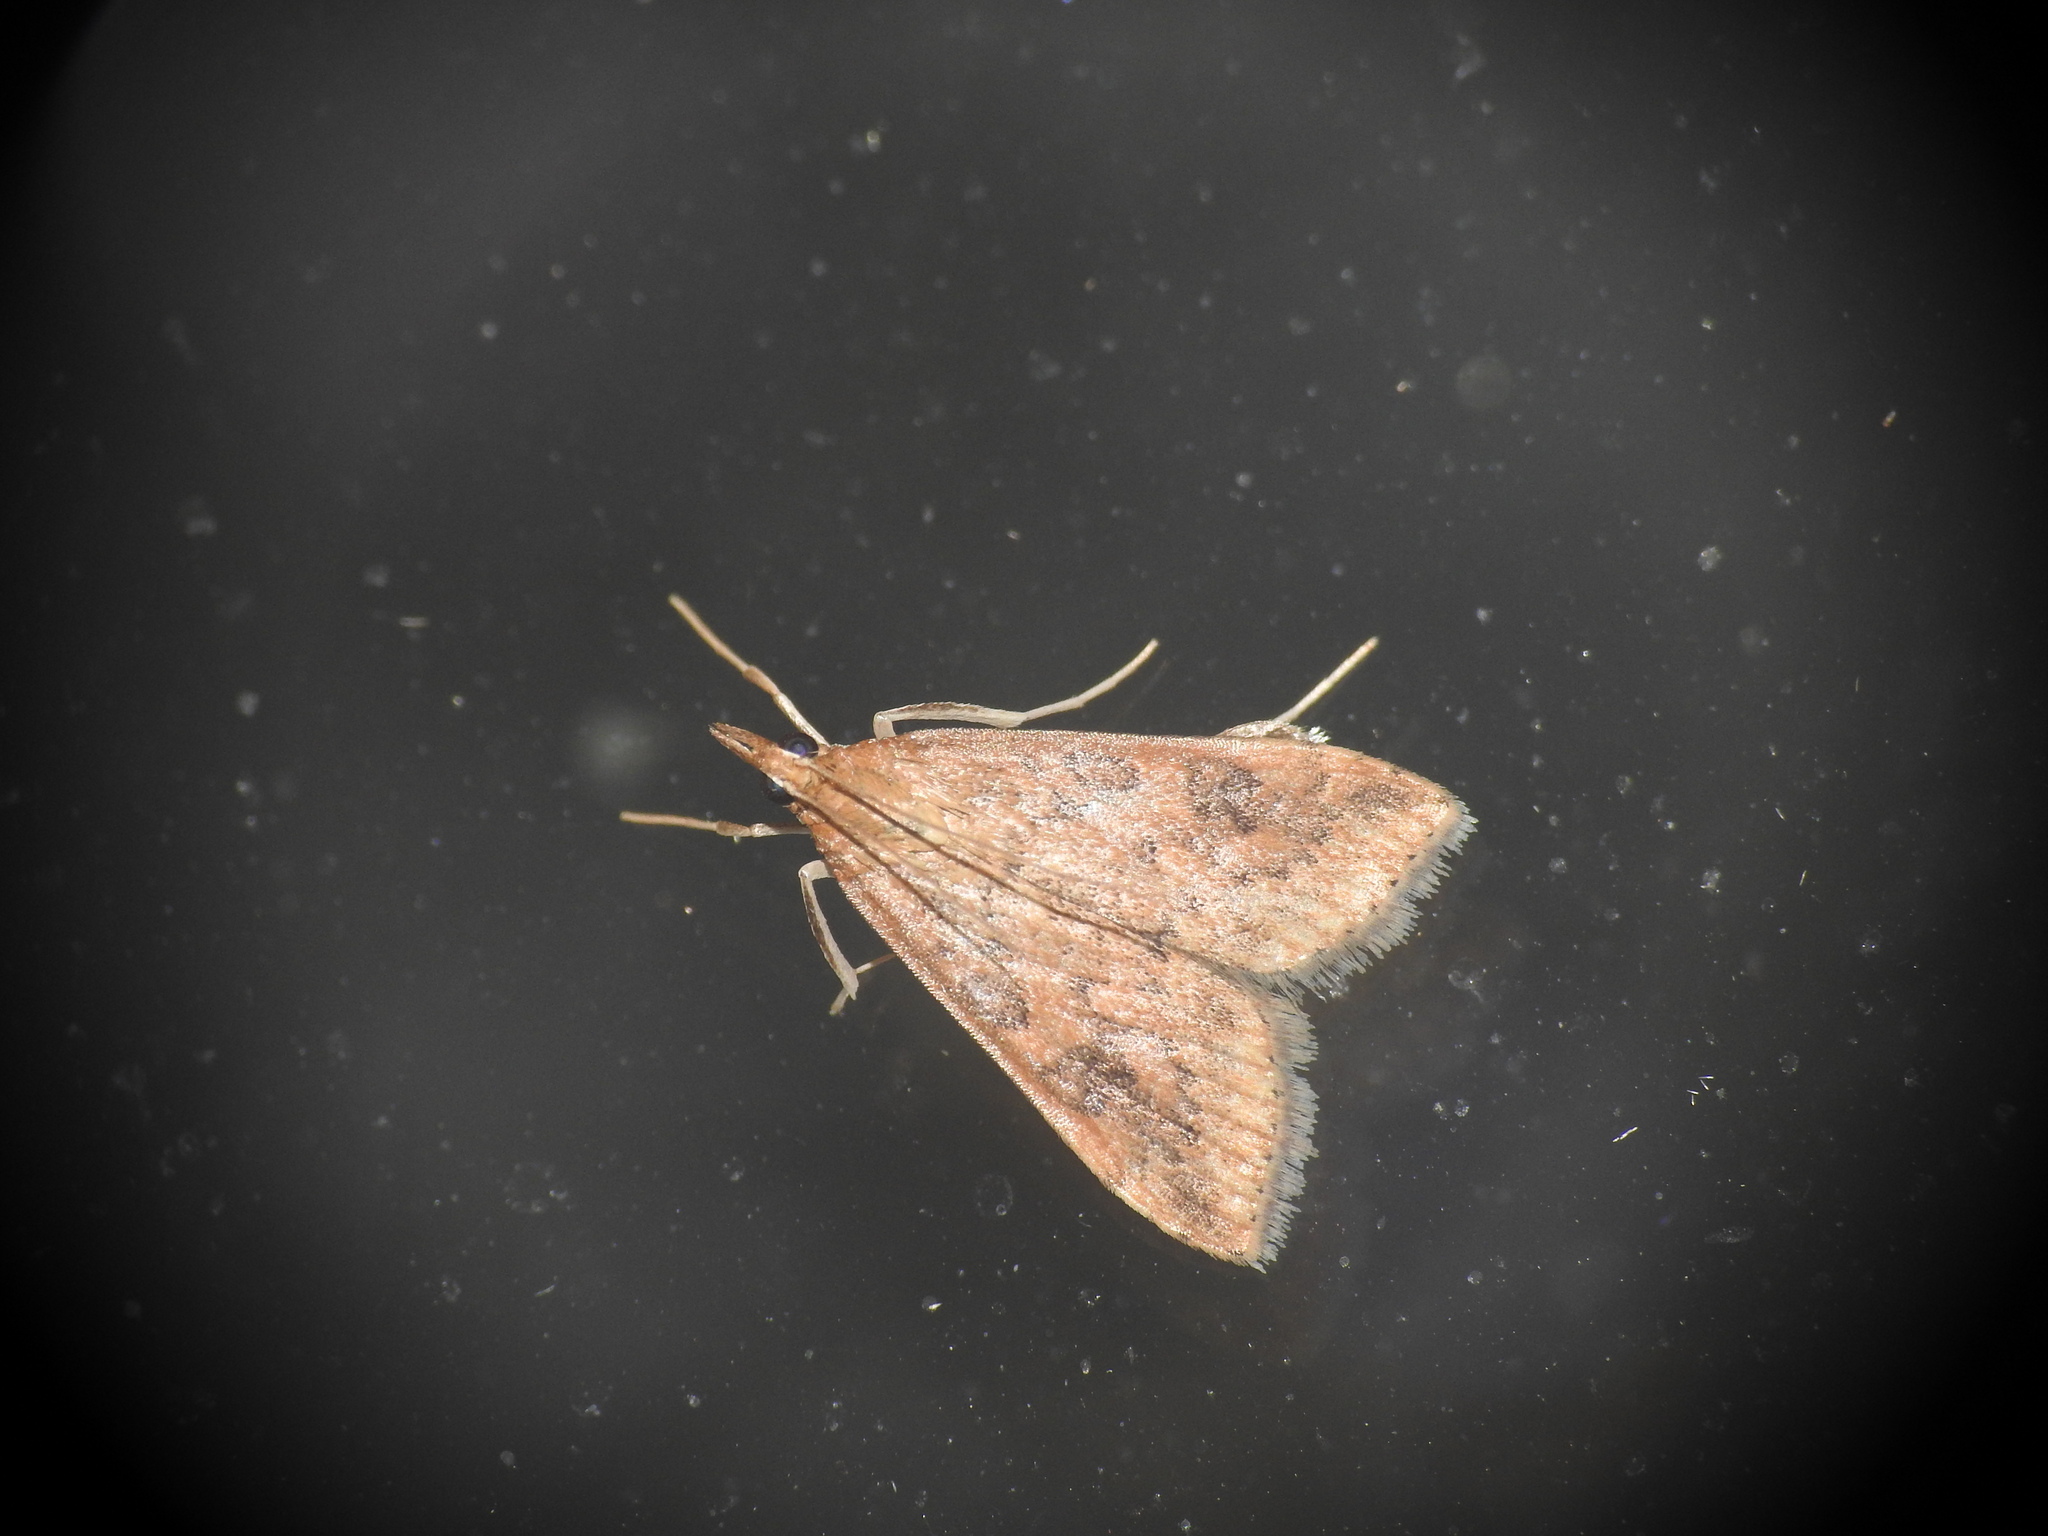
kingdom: Animalia
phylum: Arthropoda
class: Insecta
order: Lepidoptera
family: Crambidae
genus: Udea
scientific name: Udea ferrugalis
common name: Rusty dot
